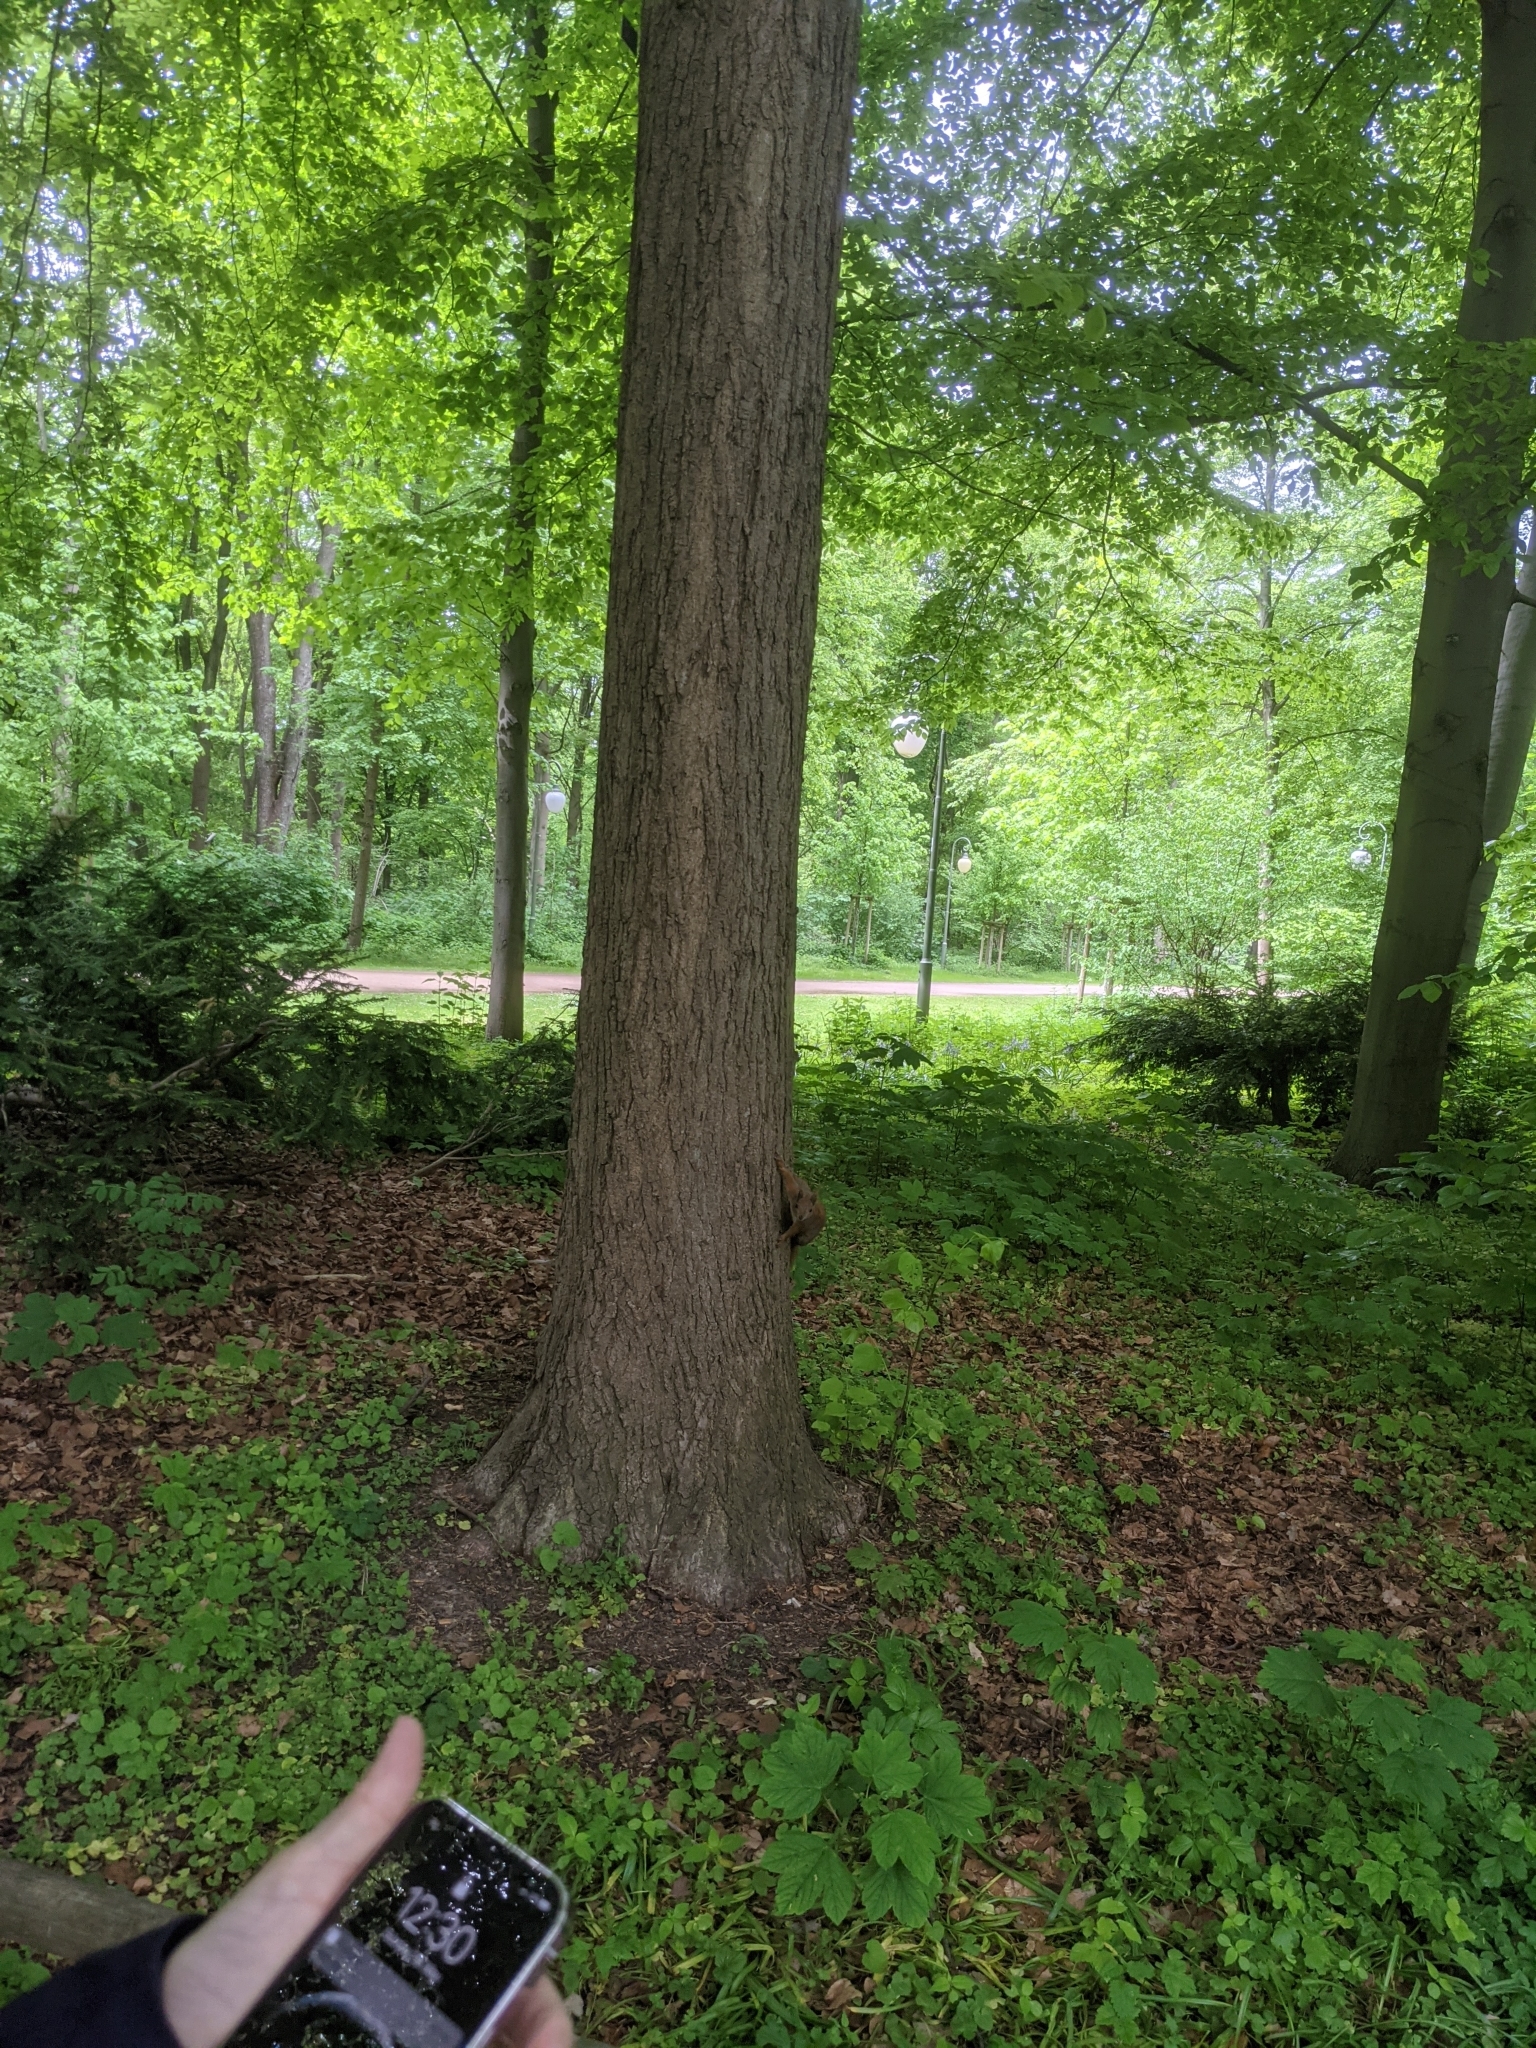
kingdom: Animalia
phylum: Chordata
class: Mammalia
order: Rodentia
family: Sciuridae
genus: Sciurus
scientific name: Sciurus vulgaris
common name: Eurasian red squirrel
